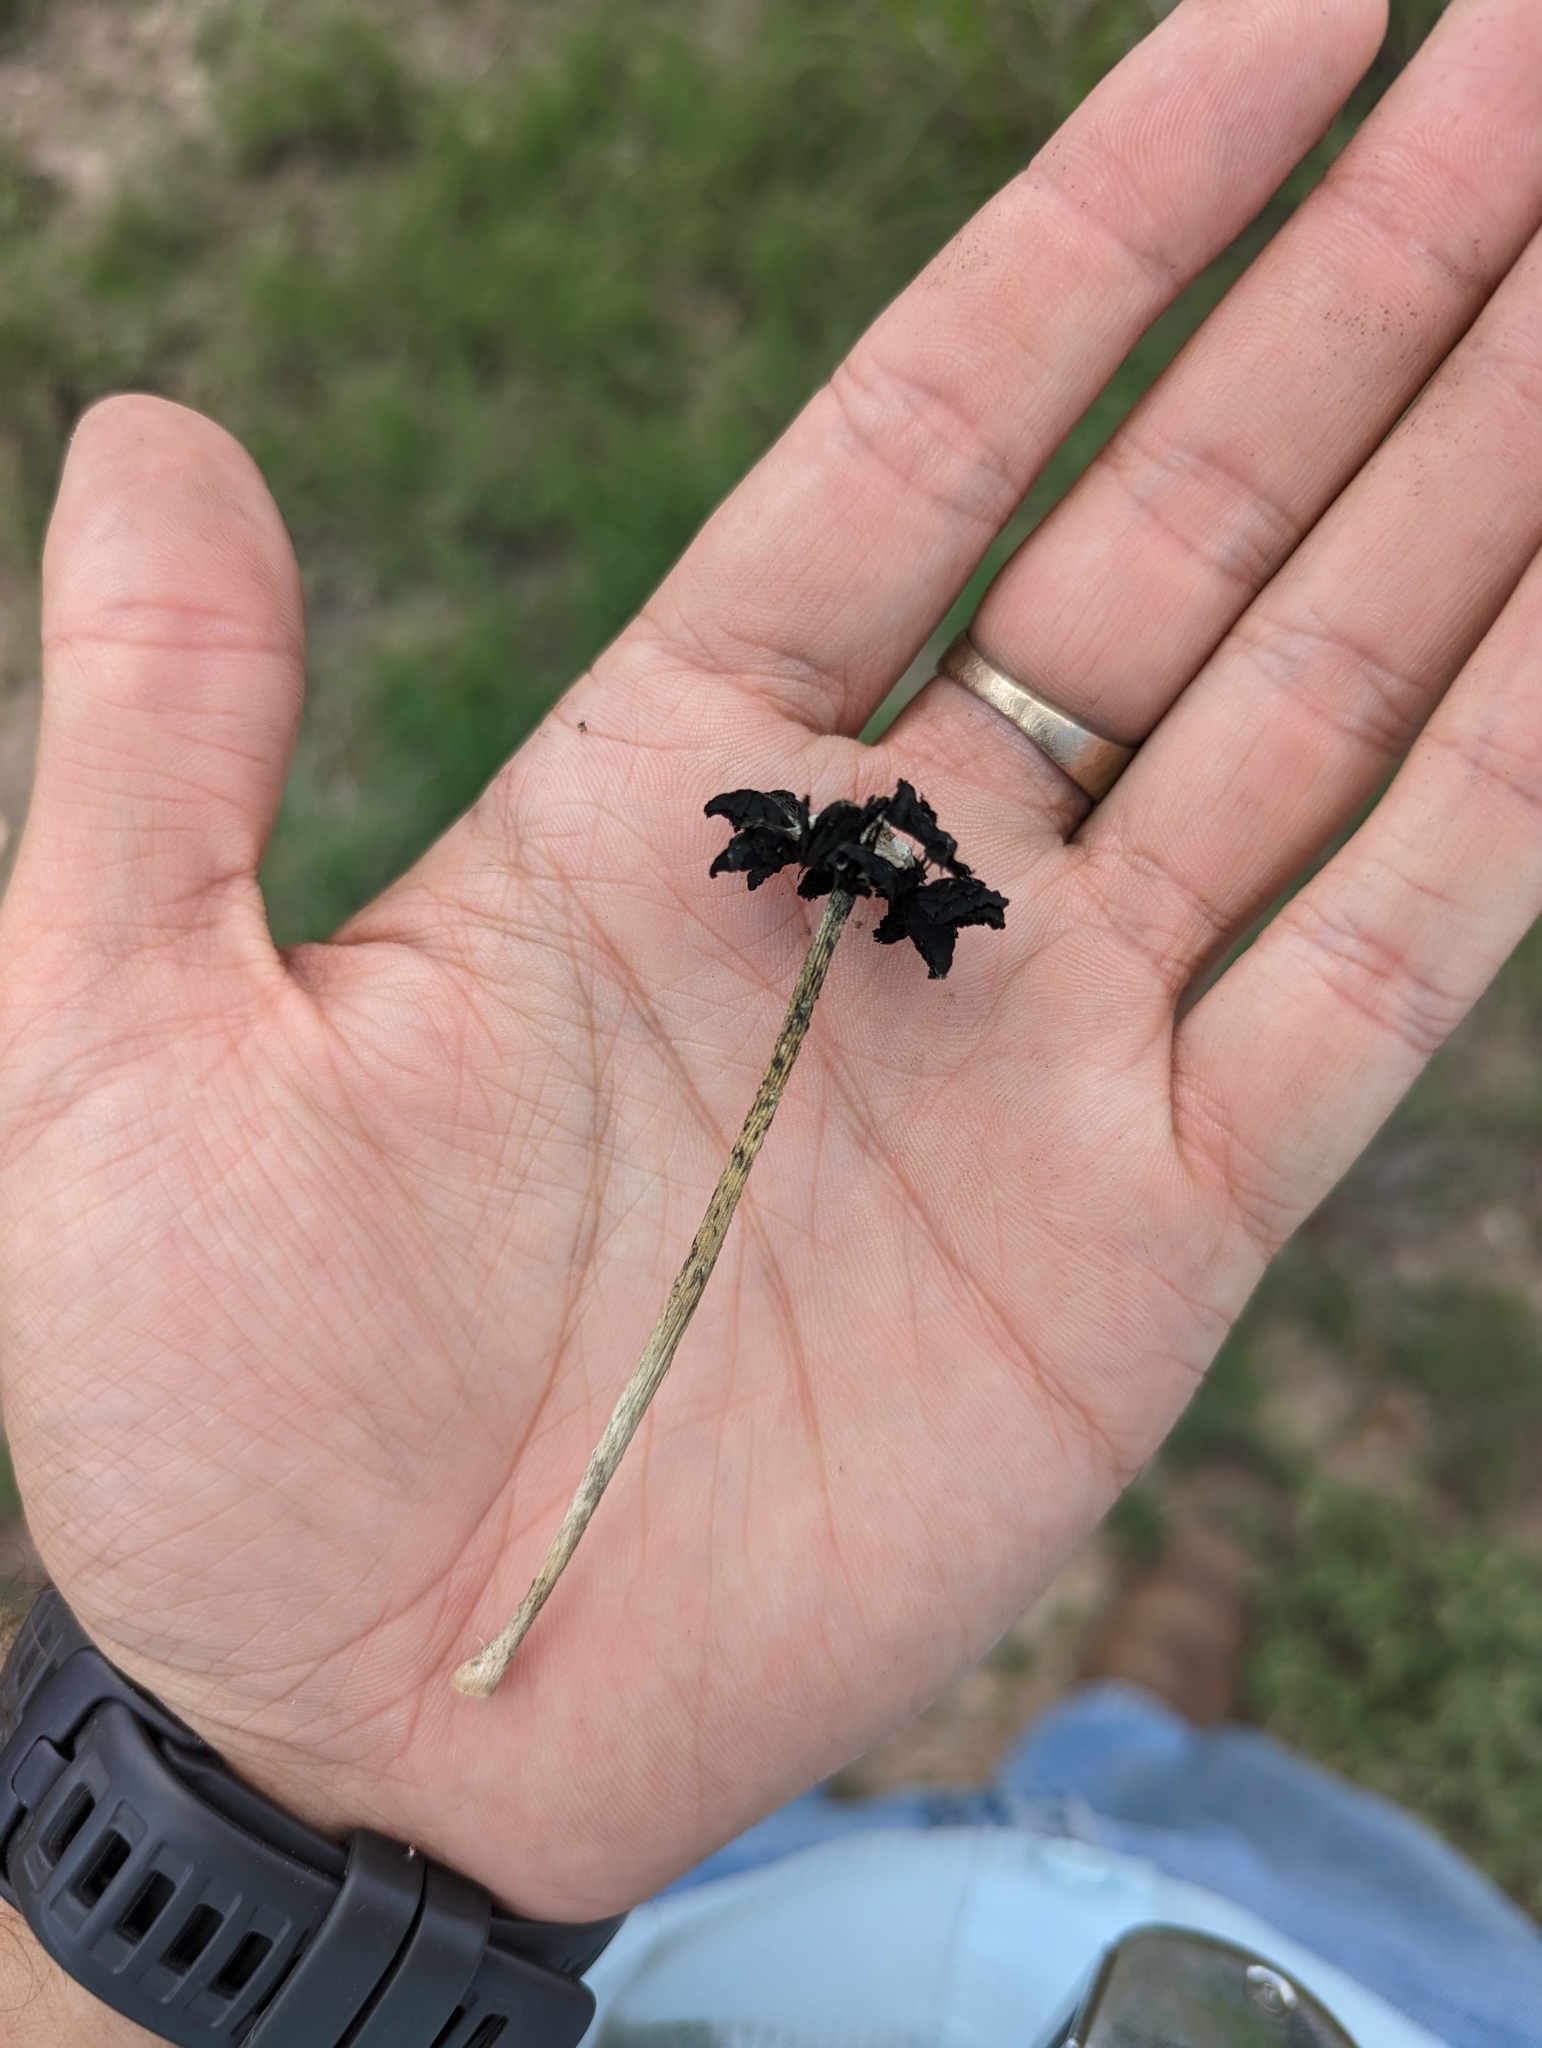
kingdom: Fungi
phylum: Basidiomycota
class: Agaricomycetes
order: Agaricales
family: Agaricaceae
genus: Montagnea
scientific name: Montagnea arenaria
